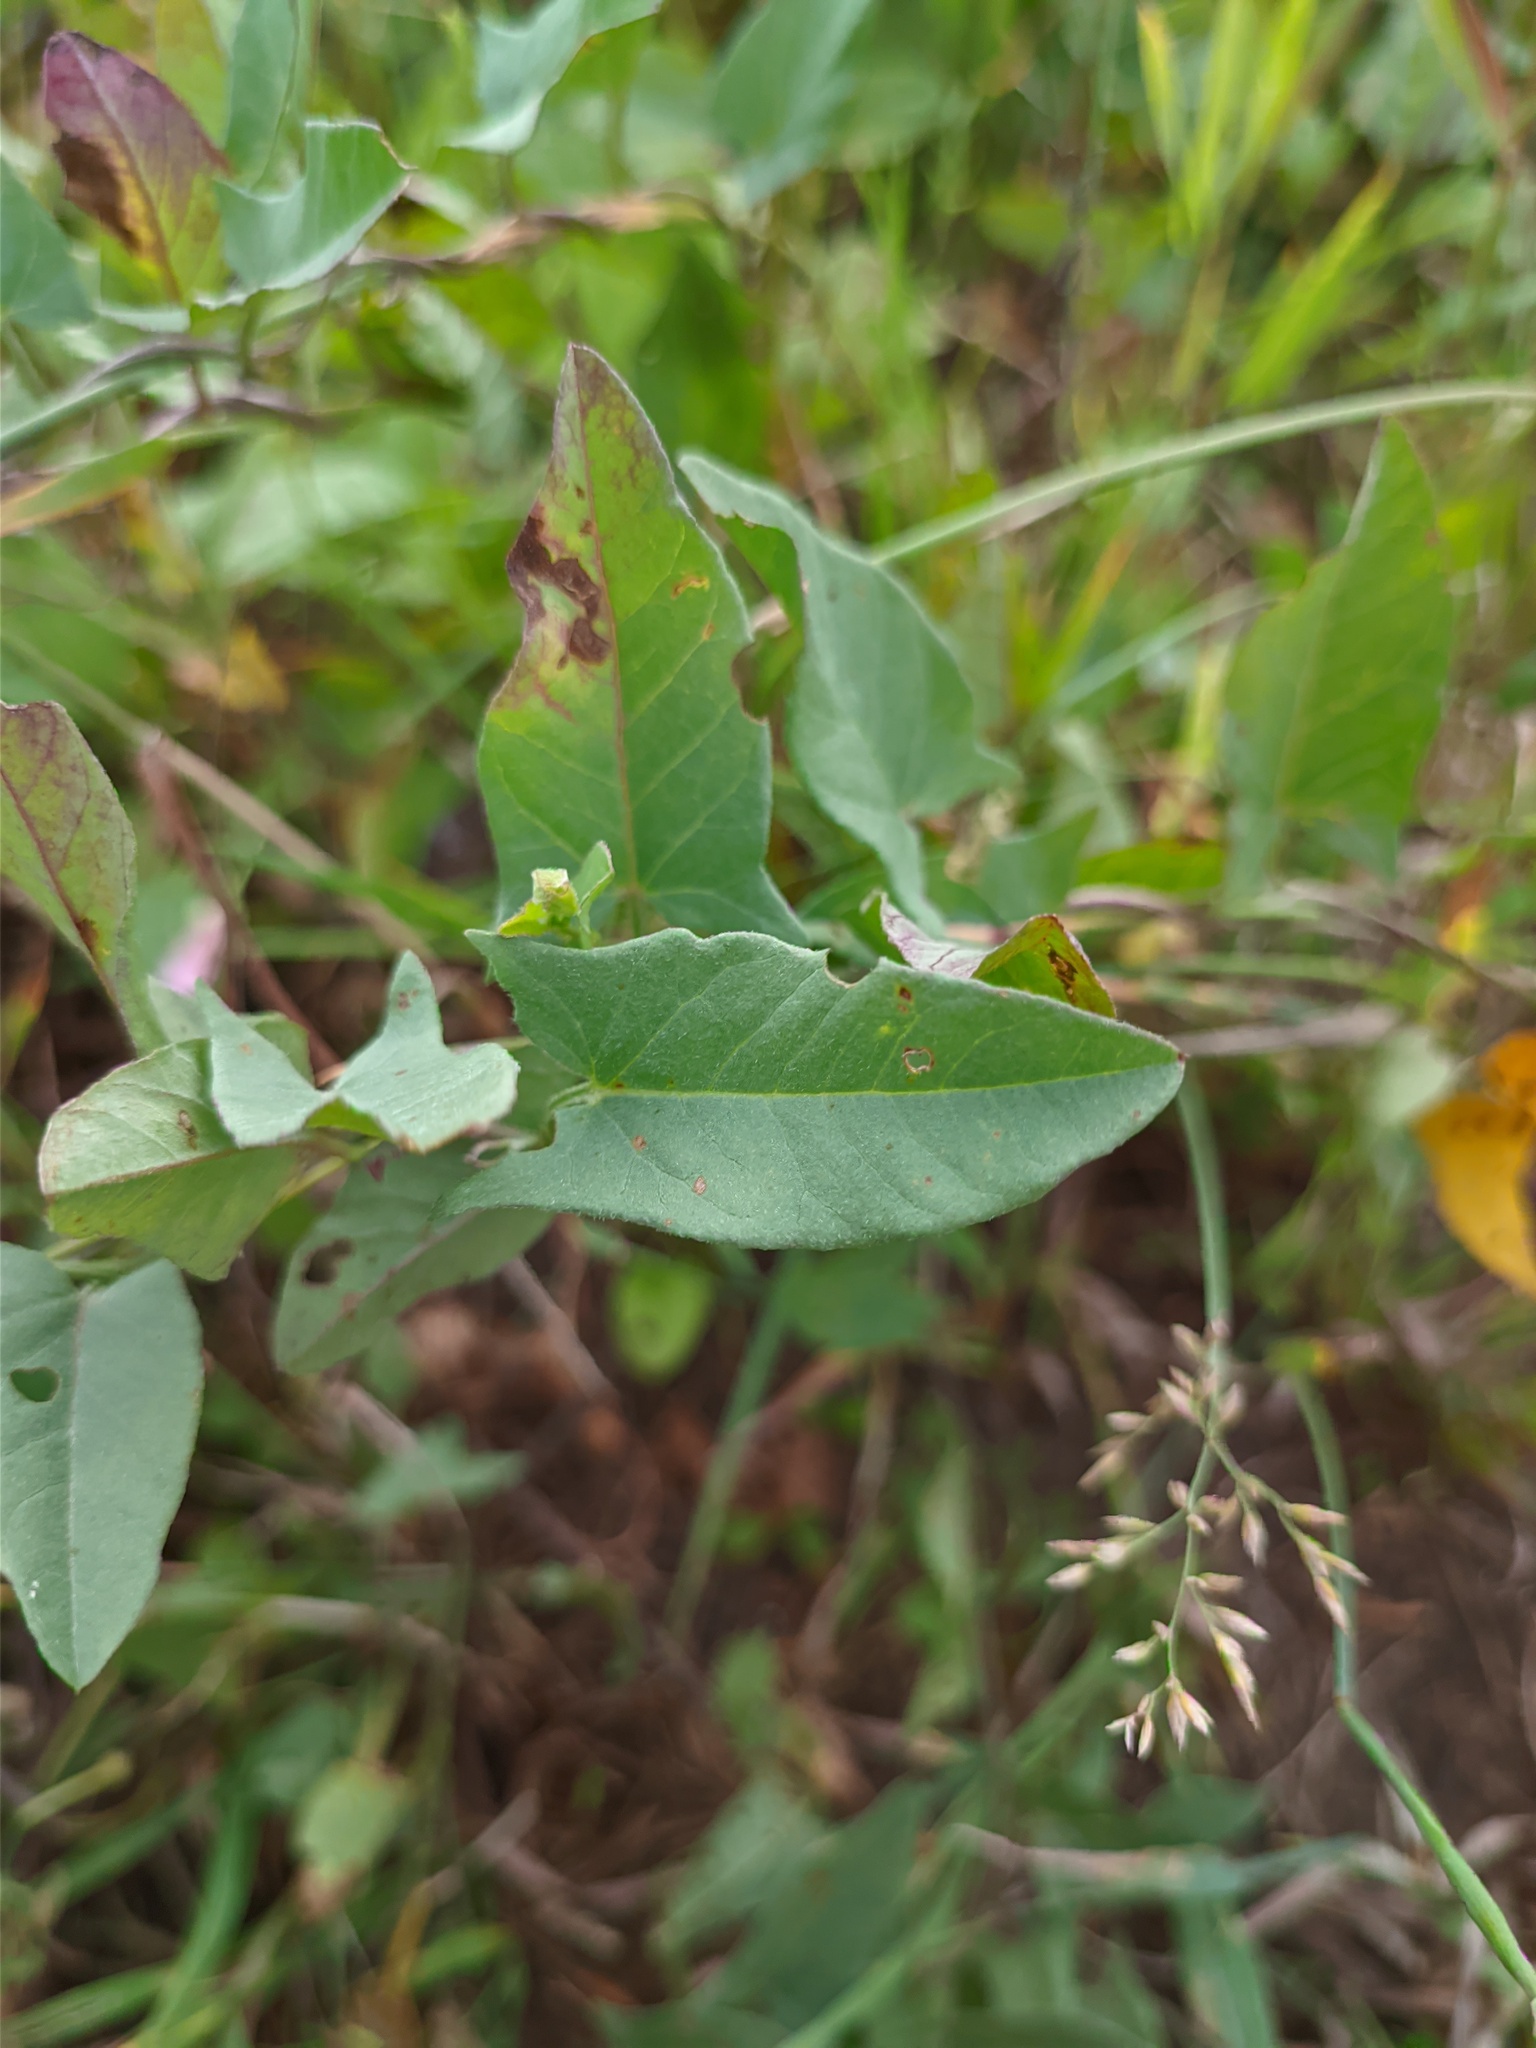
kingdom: Plantae
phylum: Tracheophyta
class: Magnoliopsida
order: Solanales
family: Convolvulaceae
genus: Convolvulus
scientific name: Convolvulus arvensis
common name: Field bindweed
